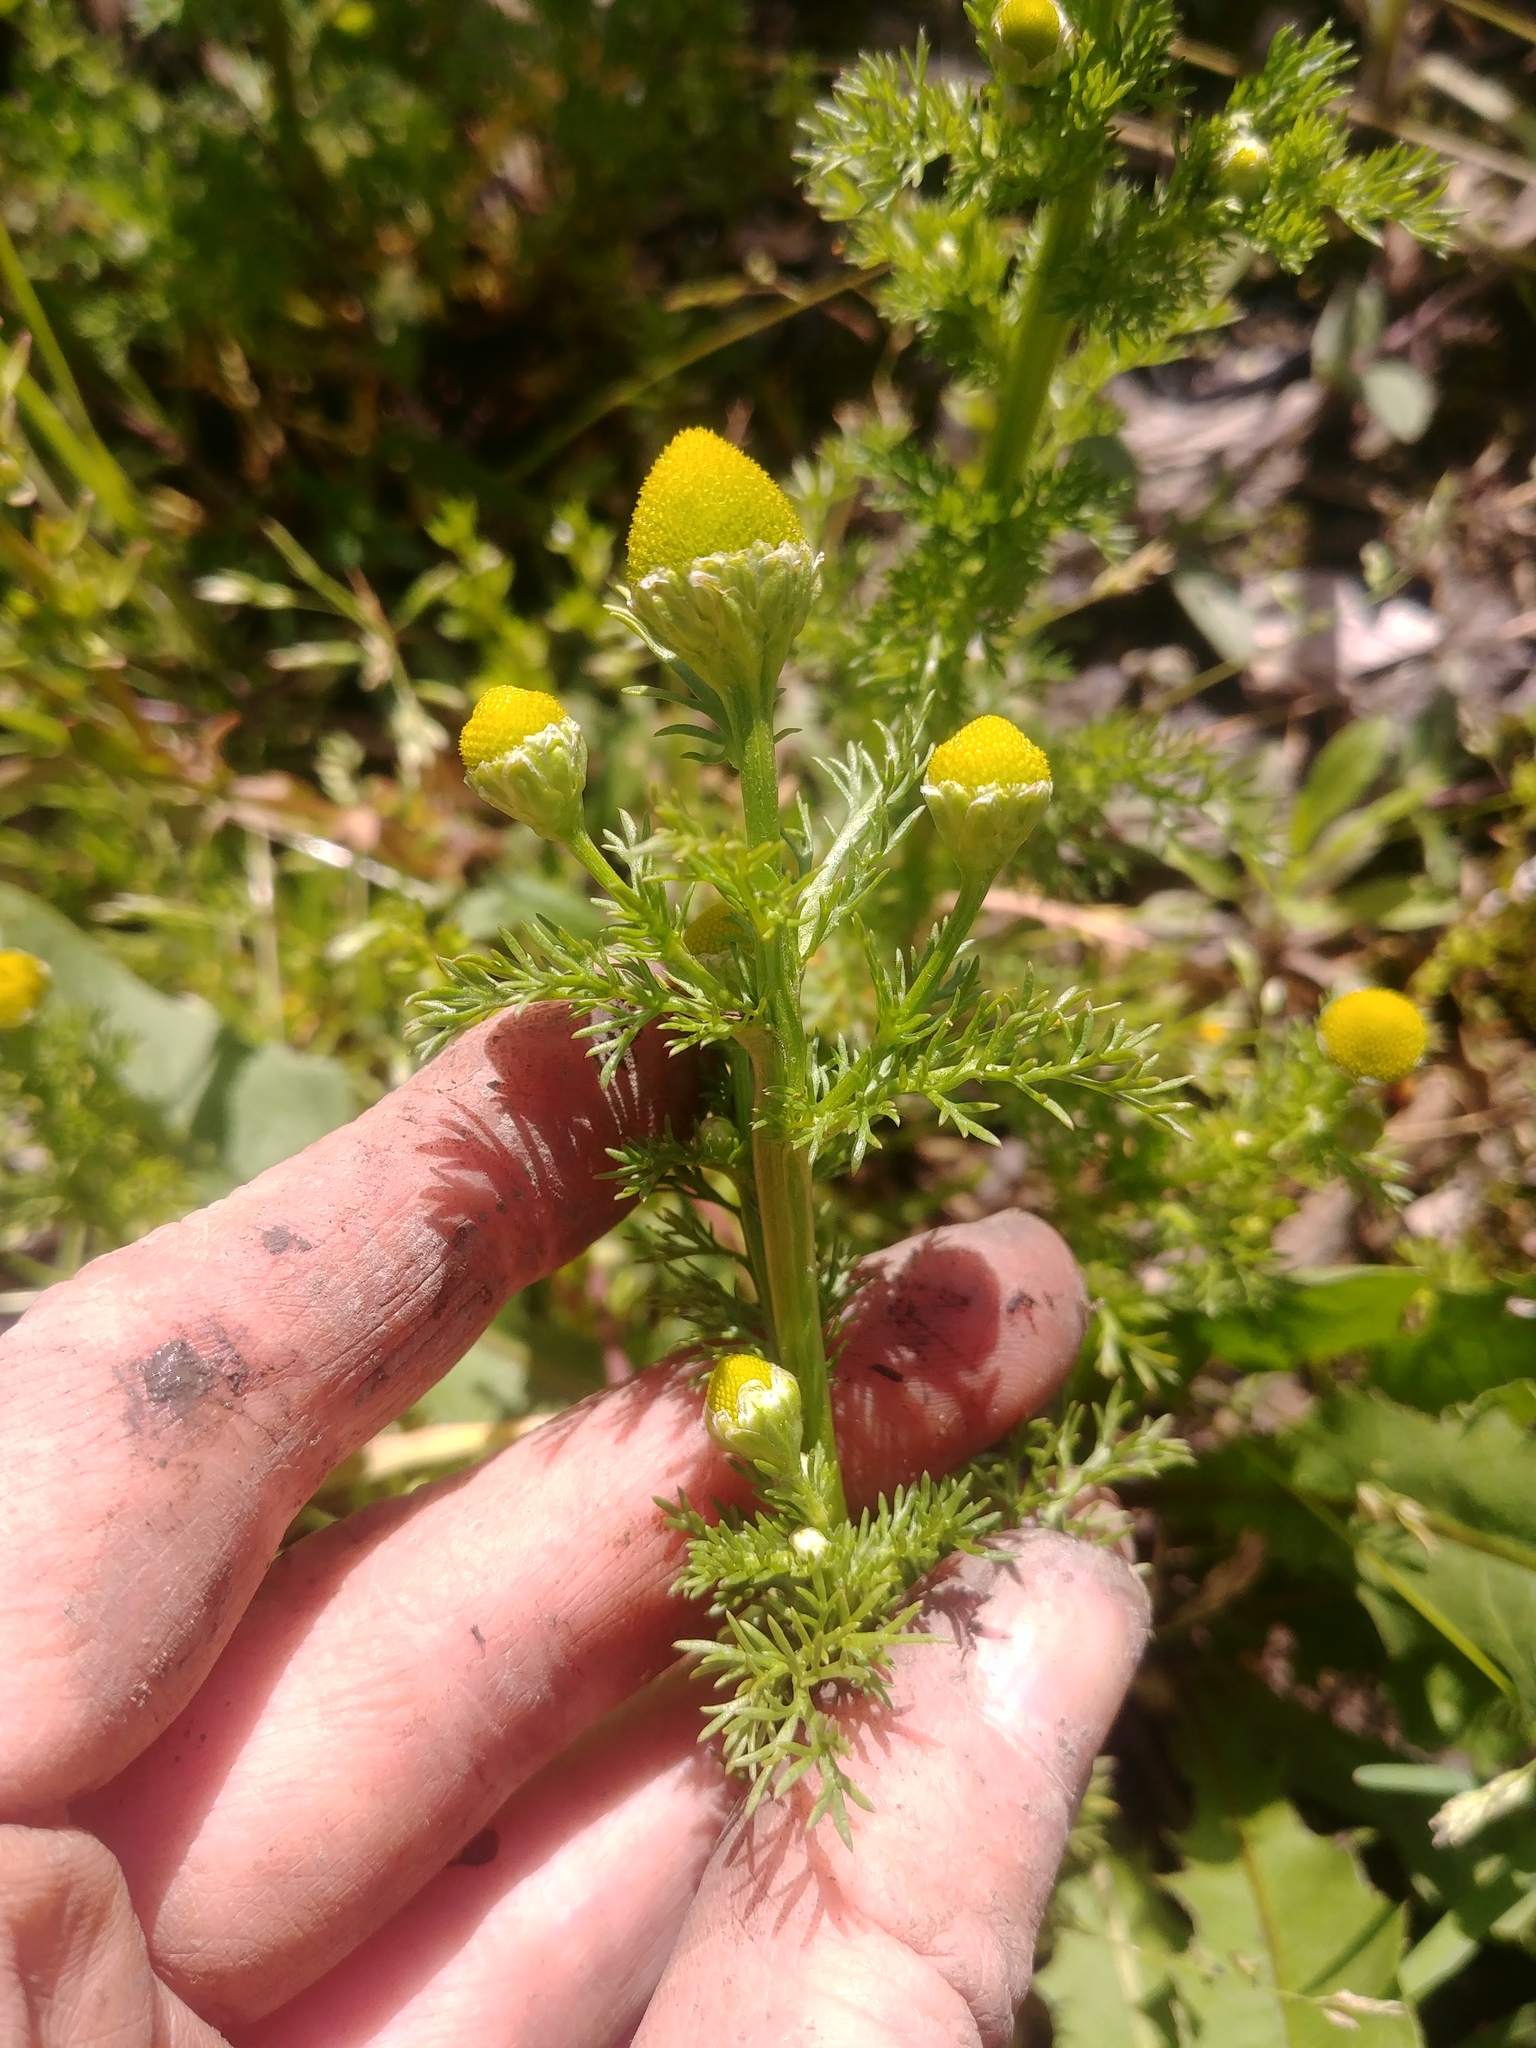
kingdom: Plantae
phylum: Tracheophyta
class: Magnoliopsida
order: Asterales
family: Asteraceae
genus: Matricaria
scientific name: Matricaria discoidea
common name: Disc mayweed
